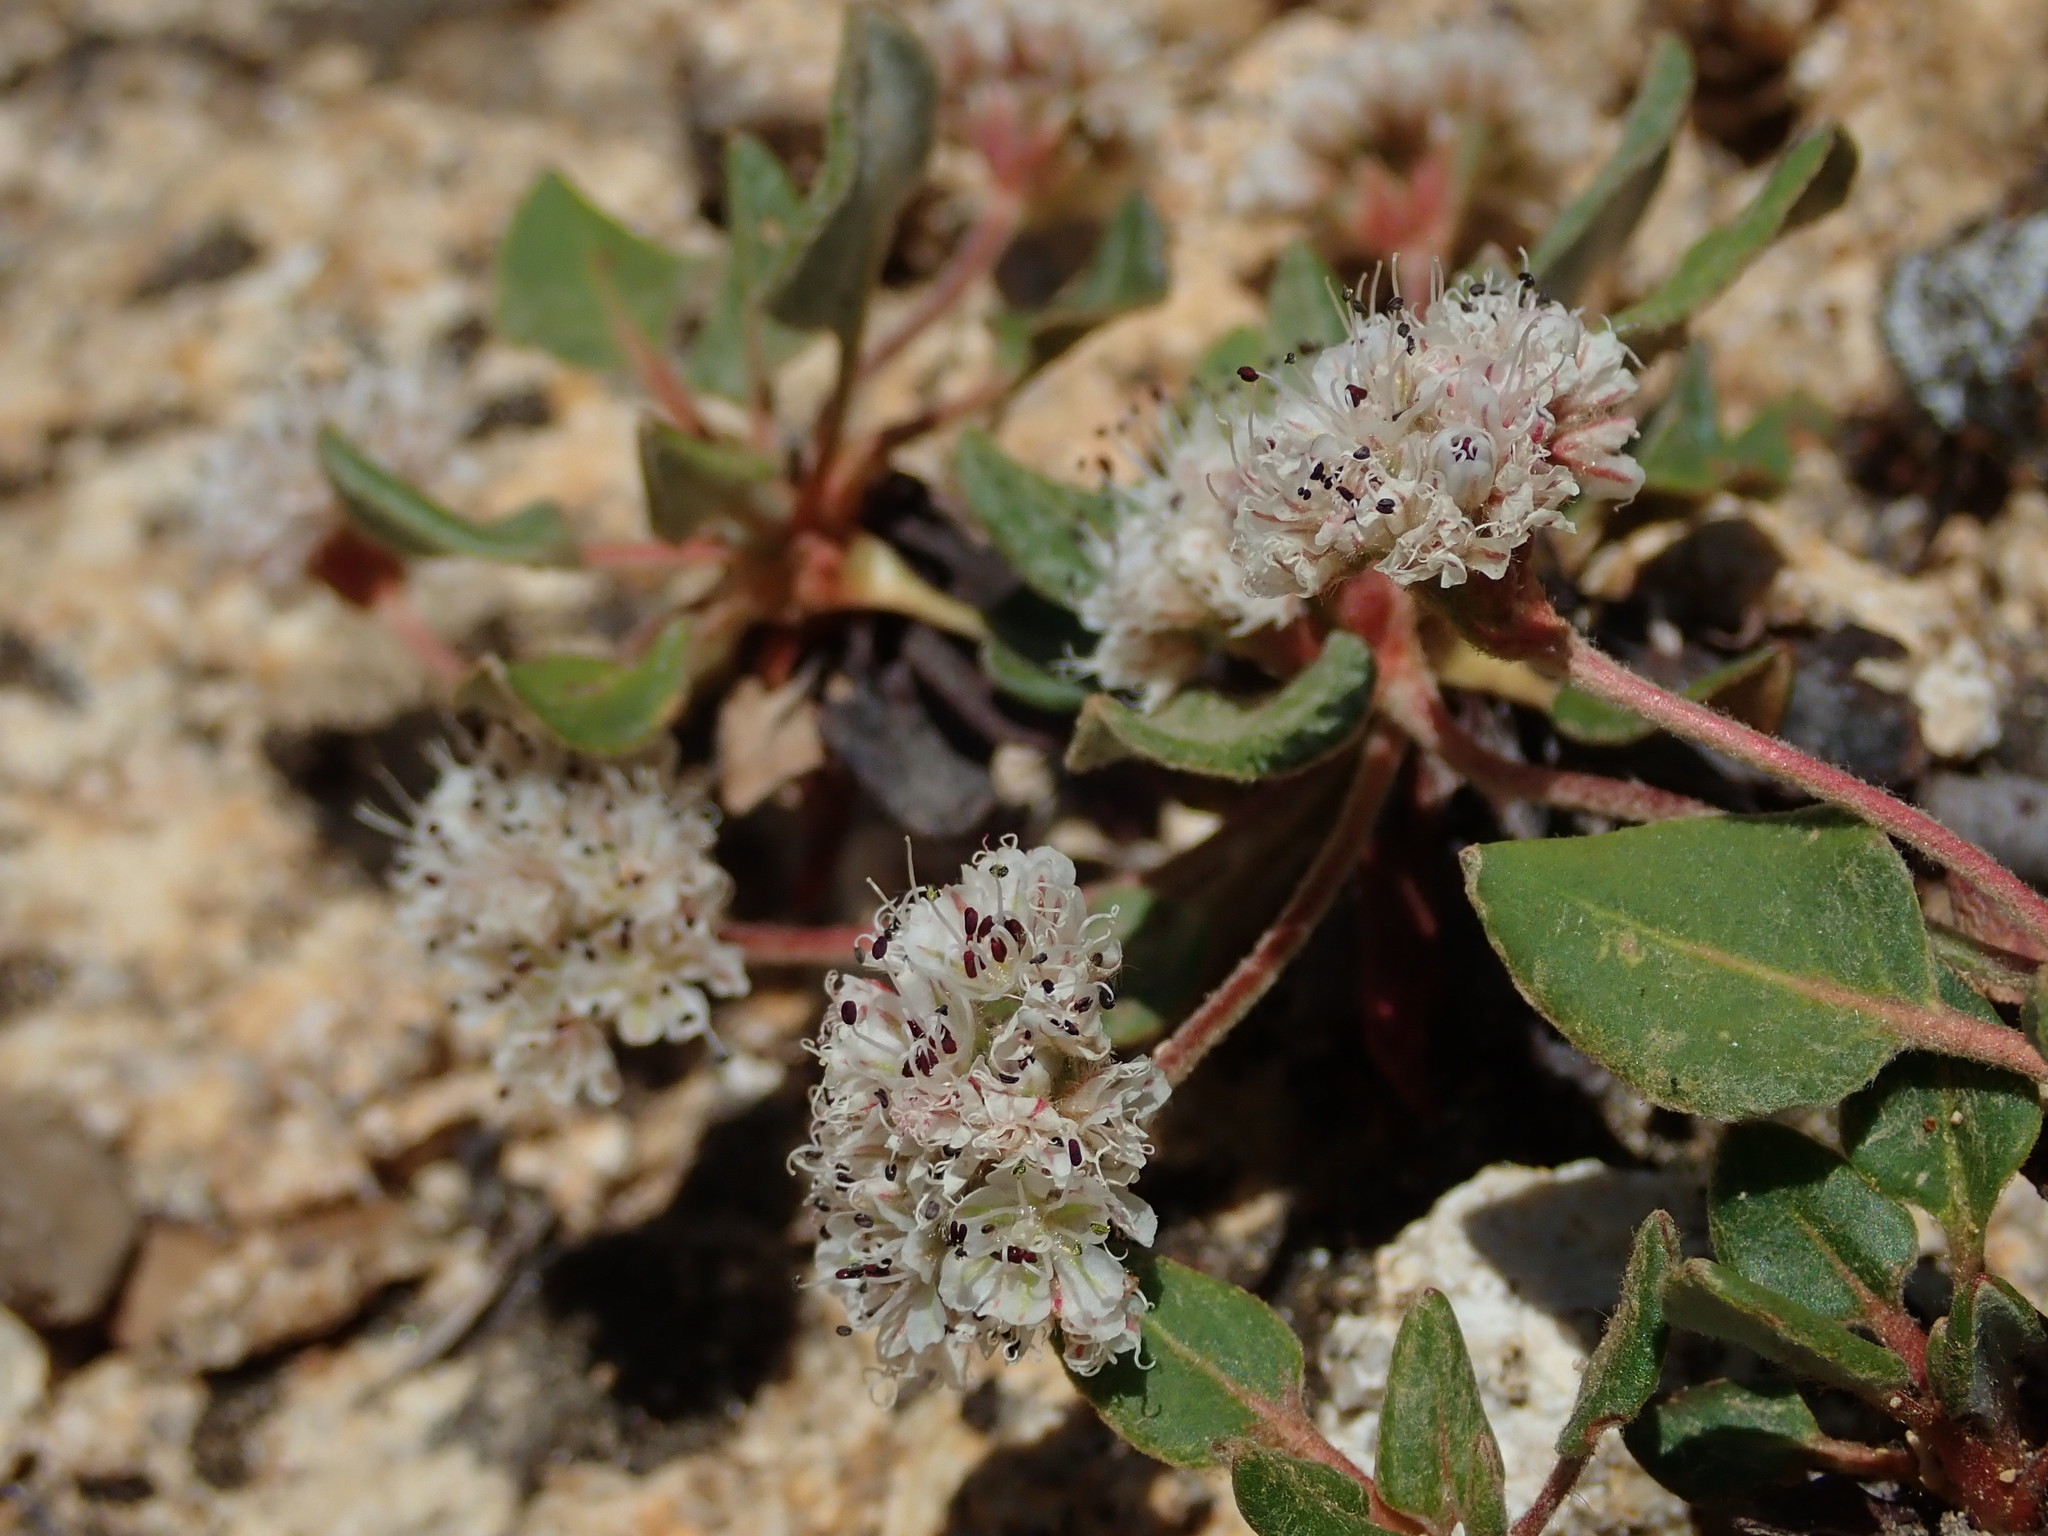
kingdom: Plantae
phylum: Tracheophyta
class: Magnoliopsida
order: Caryophyllales
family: Polygonaceae
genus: Eriogonum
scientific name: Eriogonum pyrolifolium
